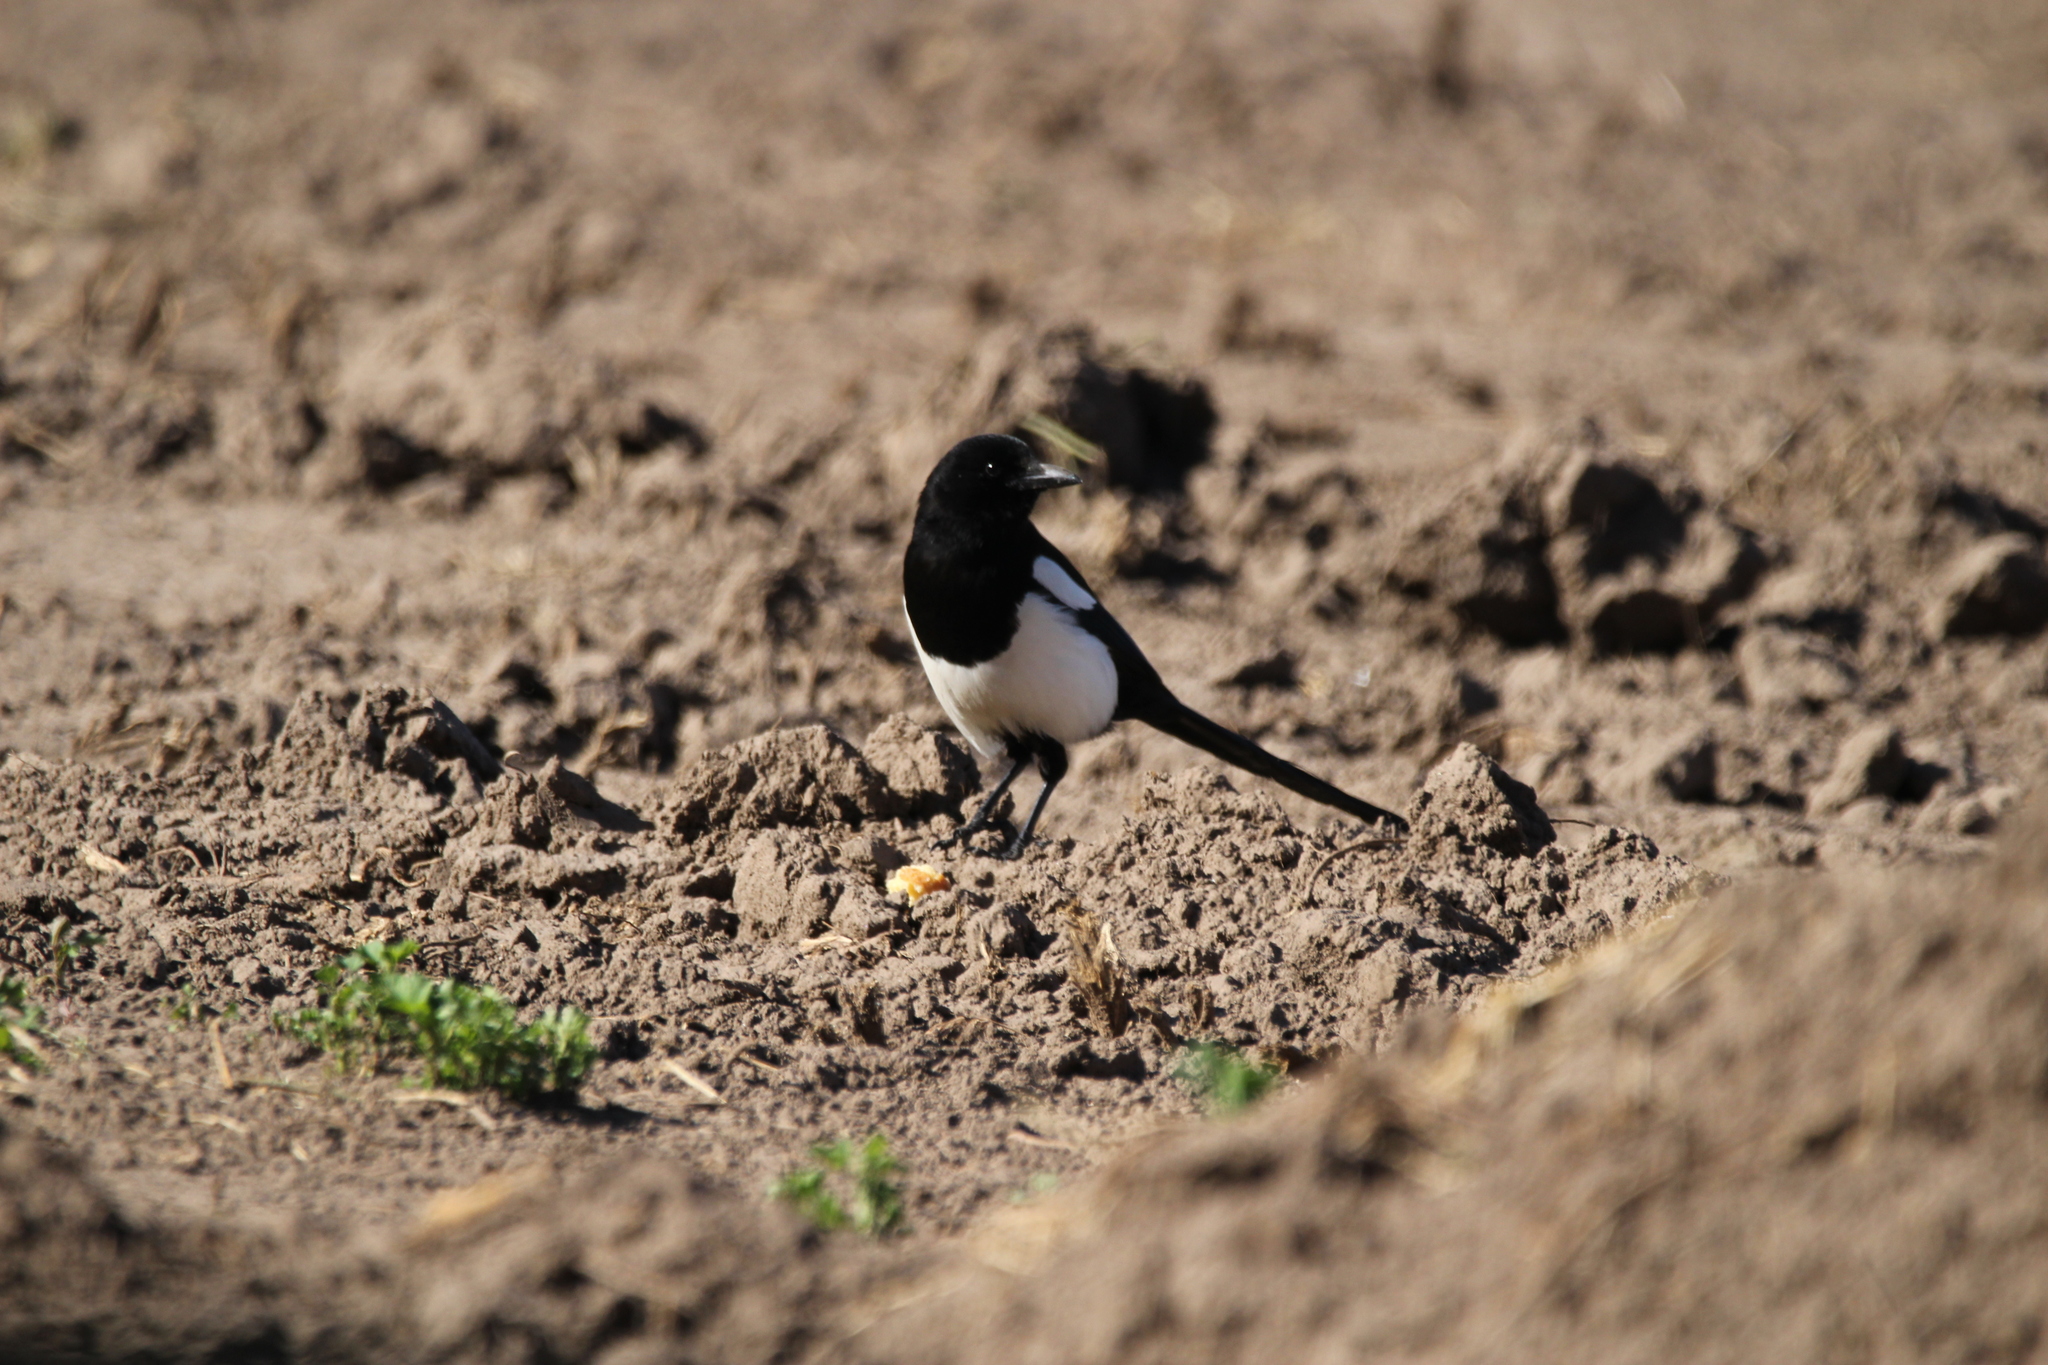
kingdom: Animalia
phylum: Chordata
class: Aves
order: Passeriformes
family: Corvidae
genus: Pica
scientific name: Pica hudsonia
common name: Black-billed magpie
